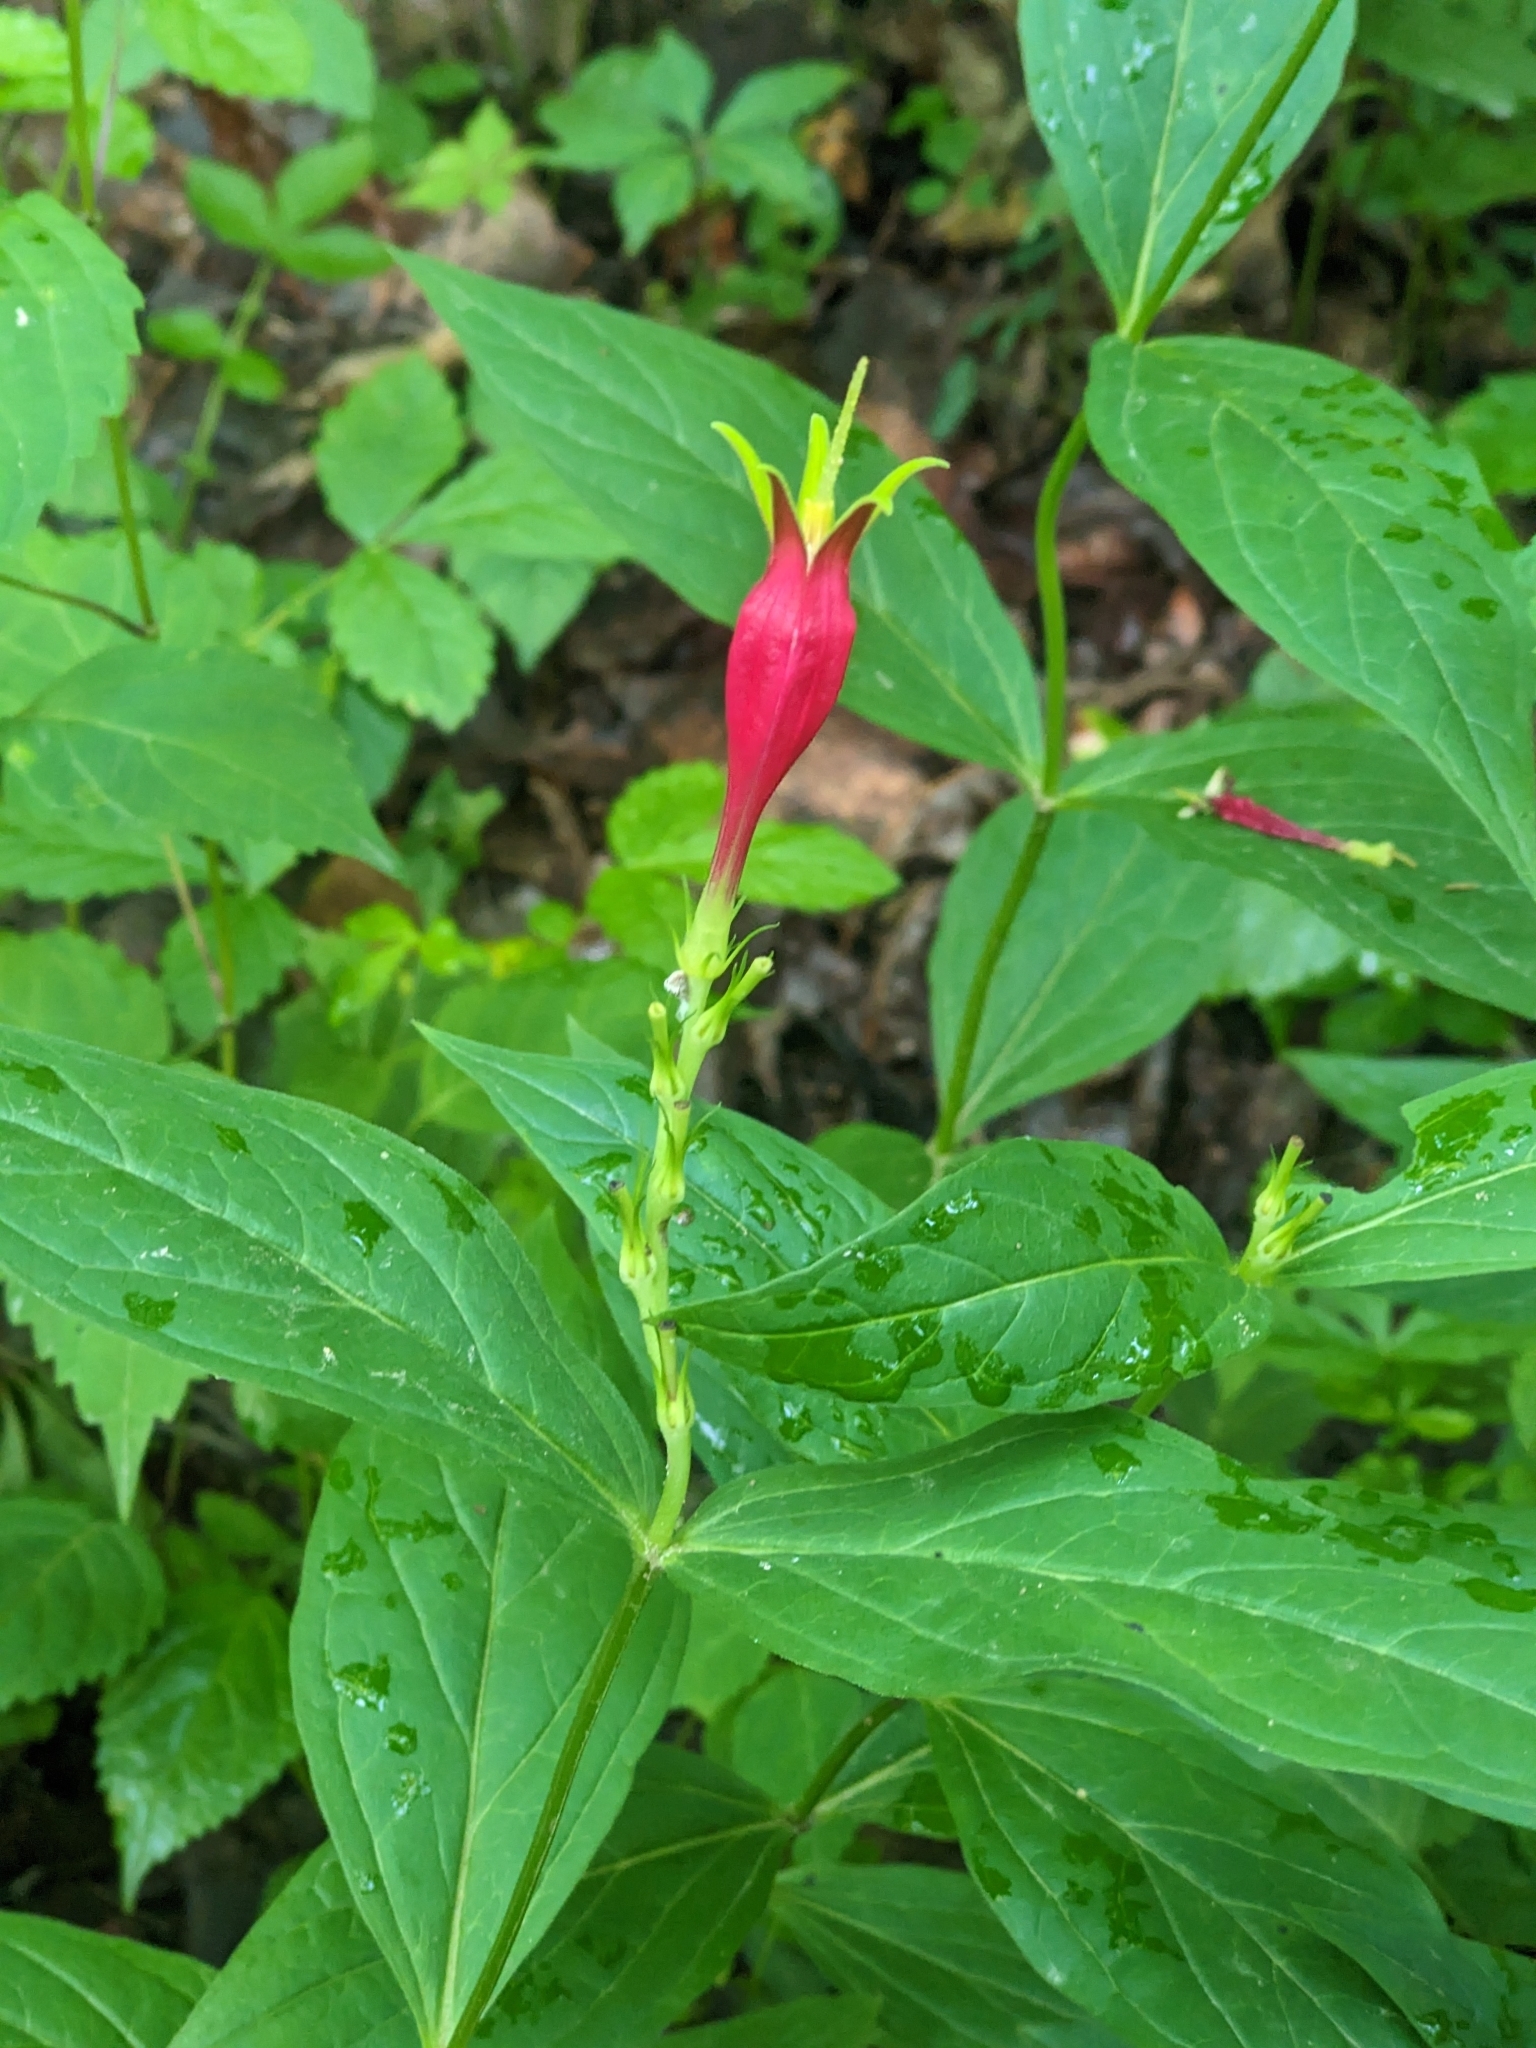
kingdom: Plantae
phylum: Tracheophyta
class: Magnoliopsida
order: Gentianales
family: Loganiaceae
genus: Spigelia
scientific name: Spigelia marilandica
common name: Indian-pink
